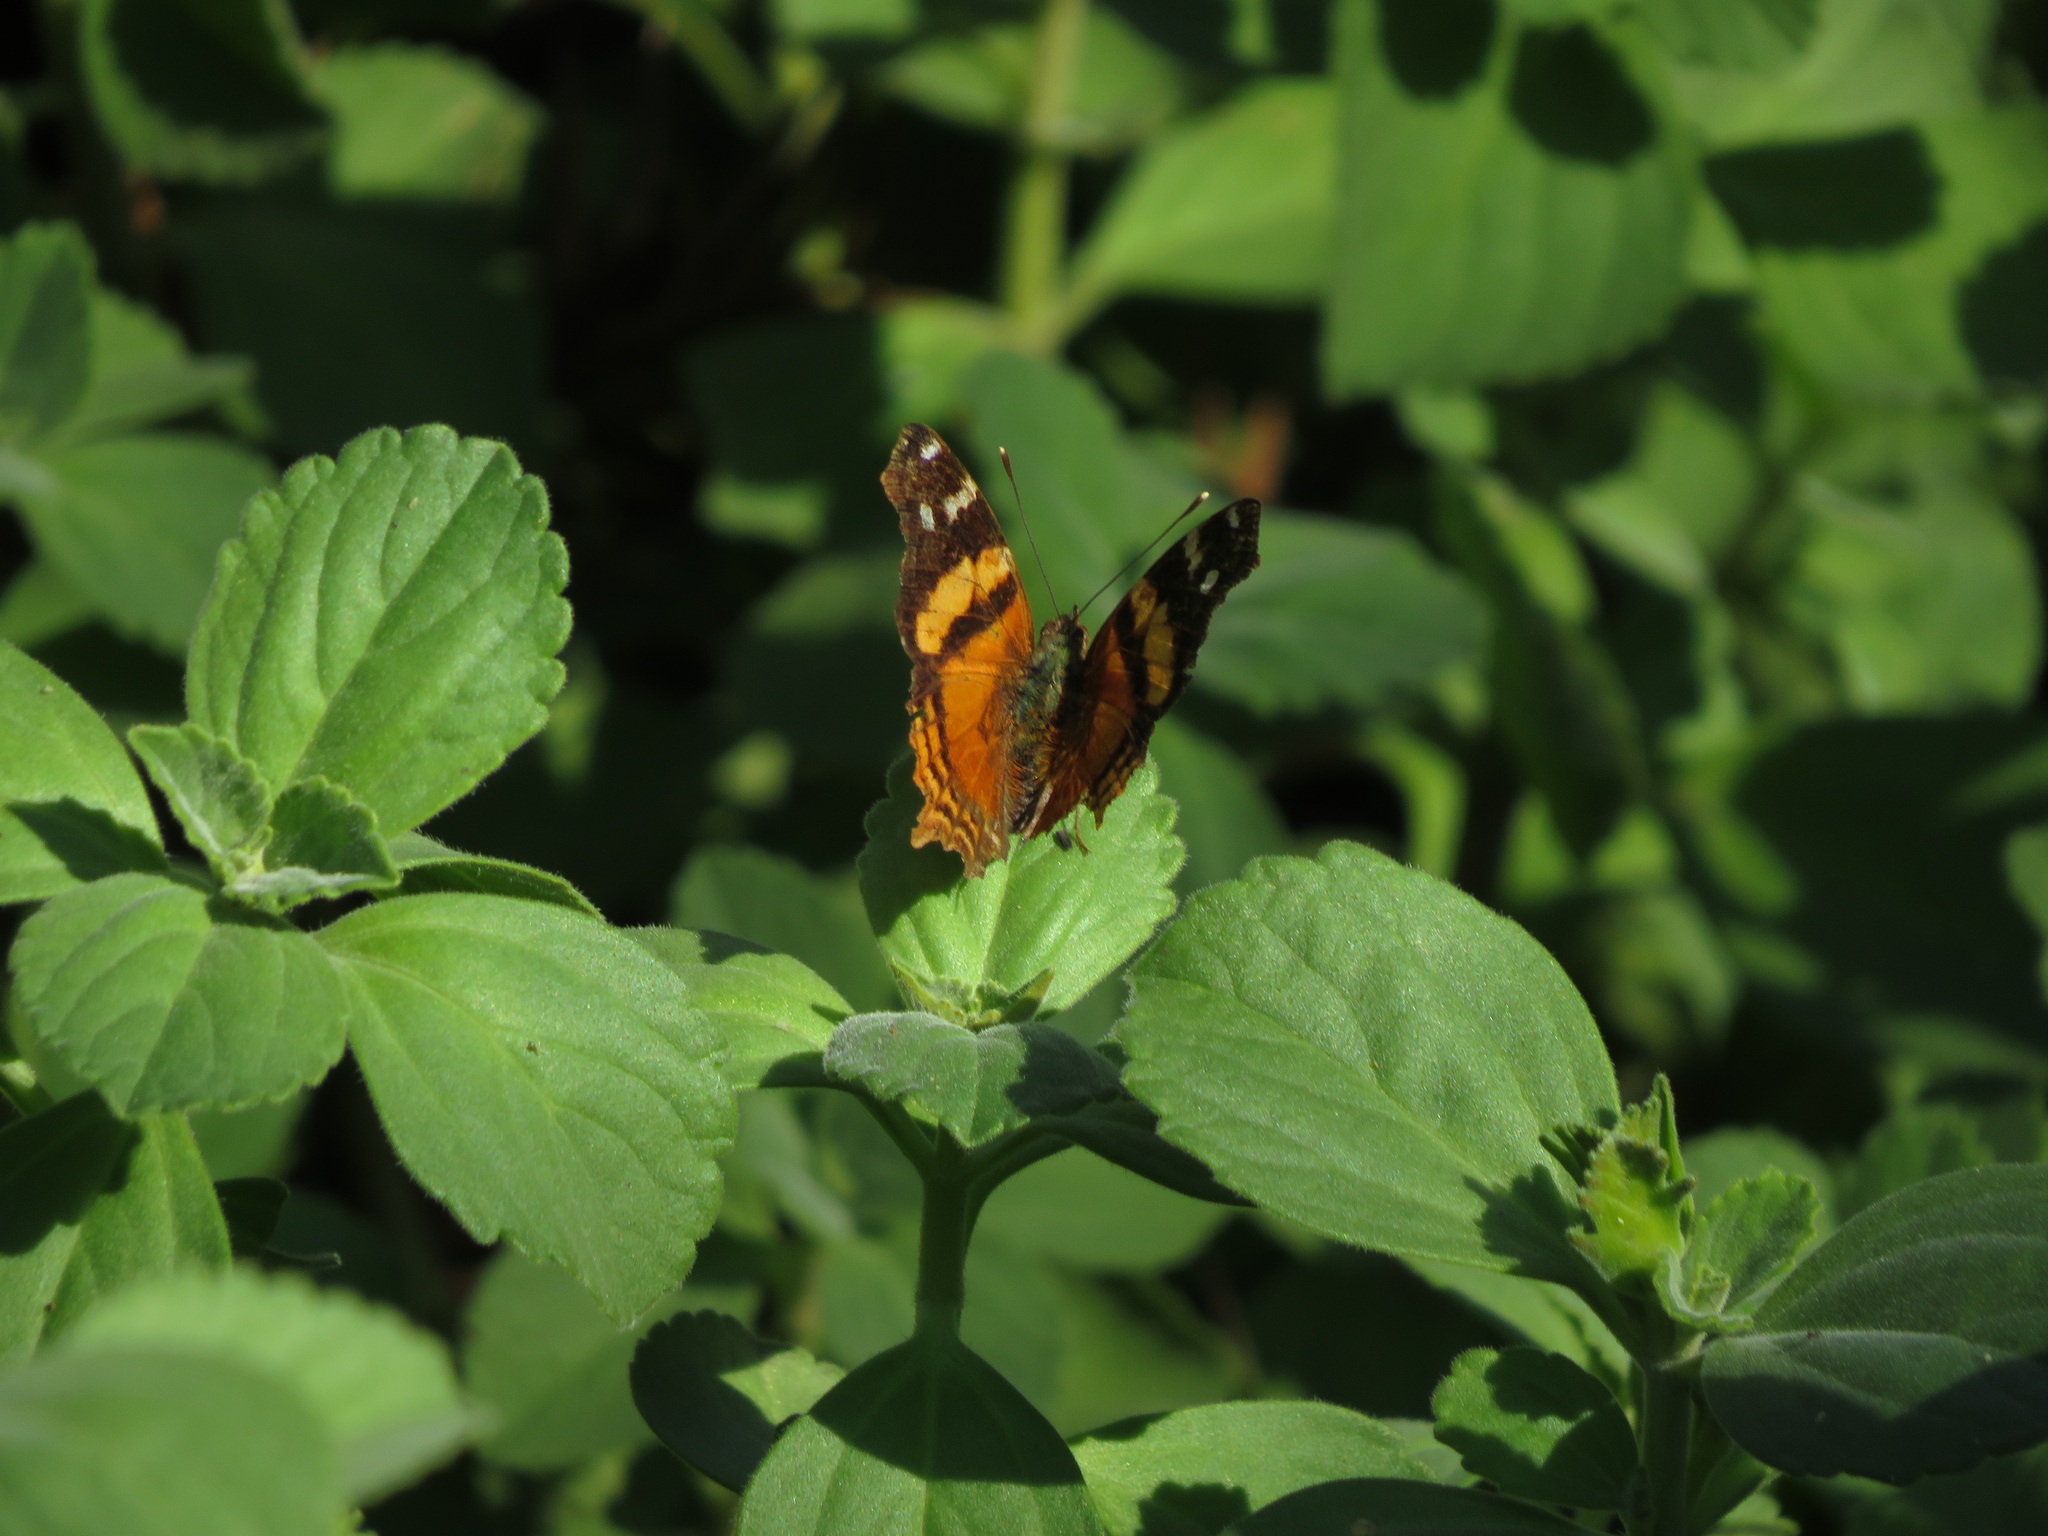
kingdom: Animalia
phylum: Arthropoda
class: Insecta
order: Lepidoptera
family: Nymphalidae
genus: Hypanartia
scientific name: Hypanartia bella
